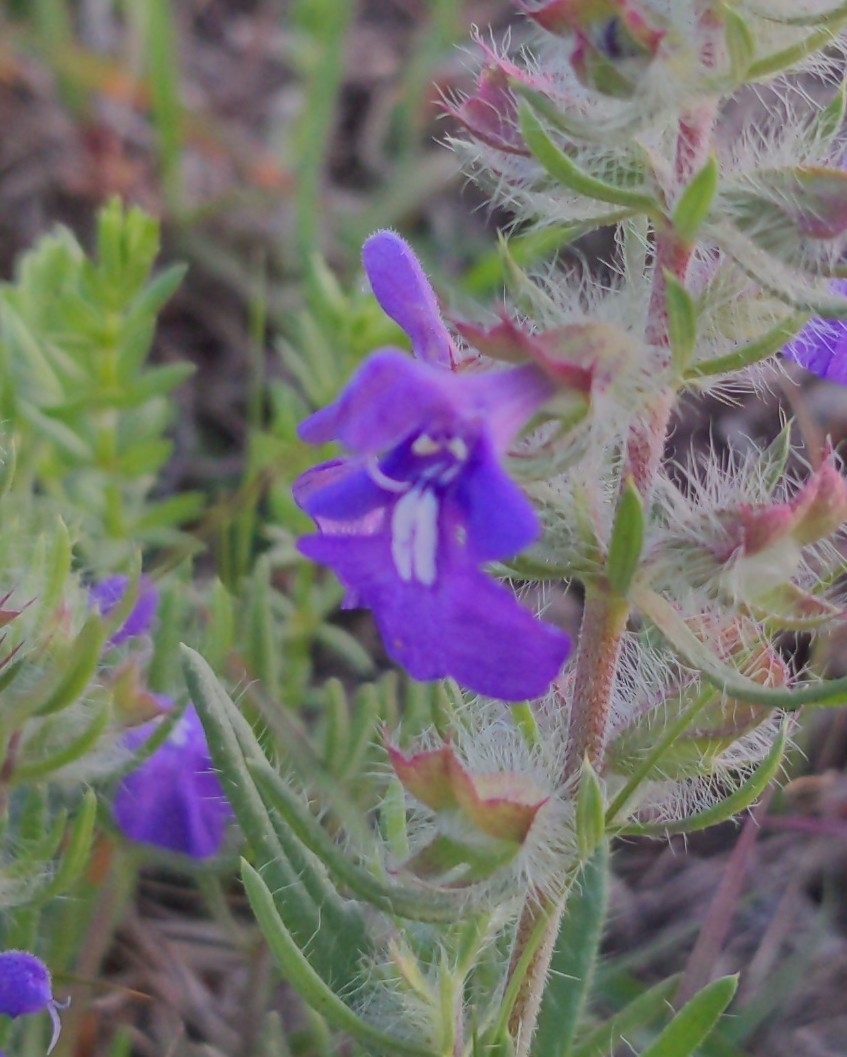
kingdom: Plantae
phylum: Tracheophyta
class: Magnoliopsida
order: Lamiales
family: Lamiaceae
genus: Salvia
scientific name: Salvia texana
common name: Texas sage
